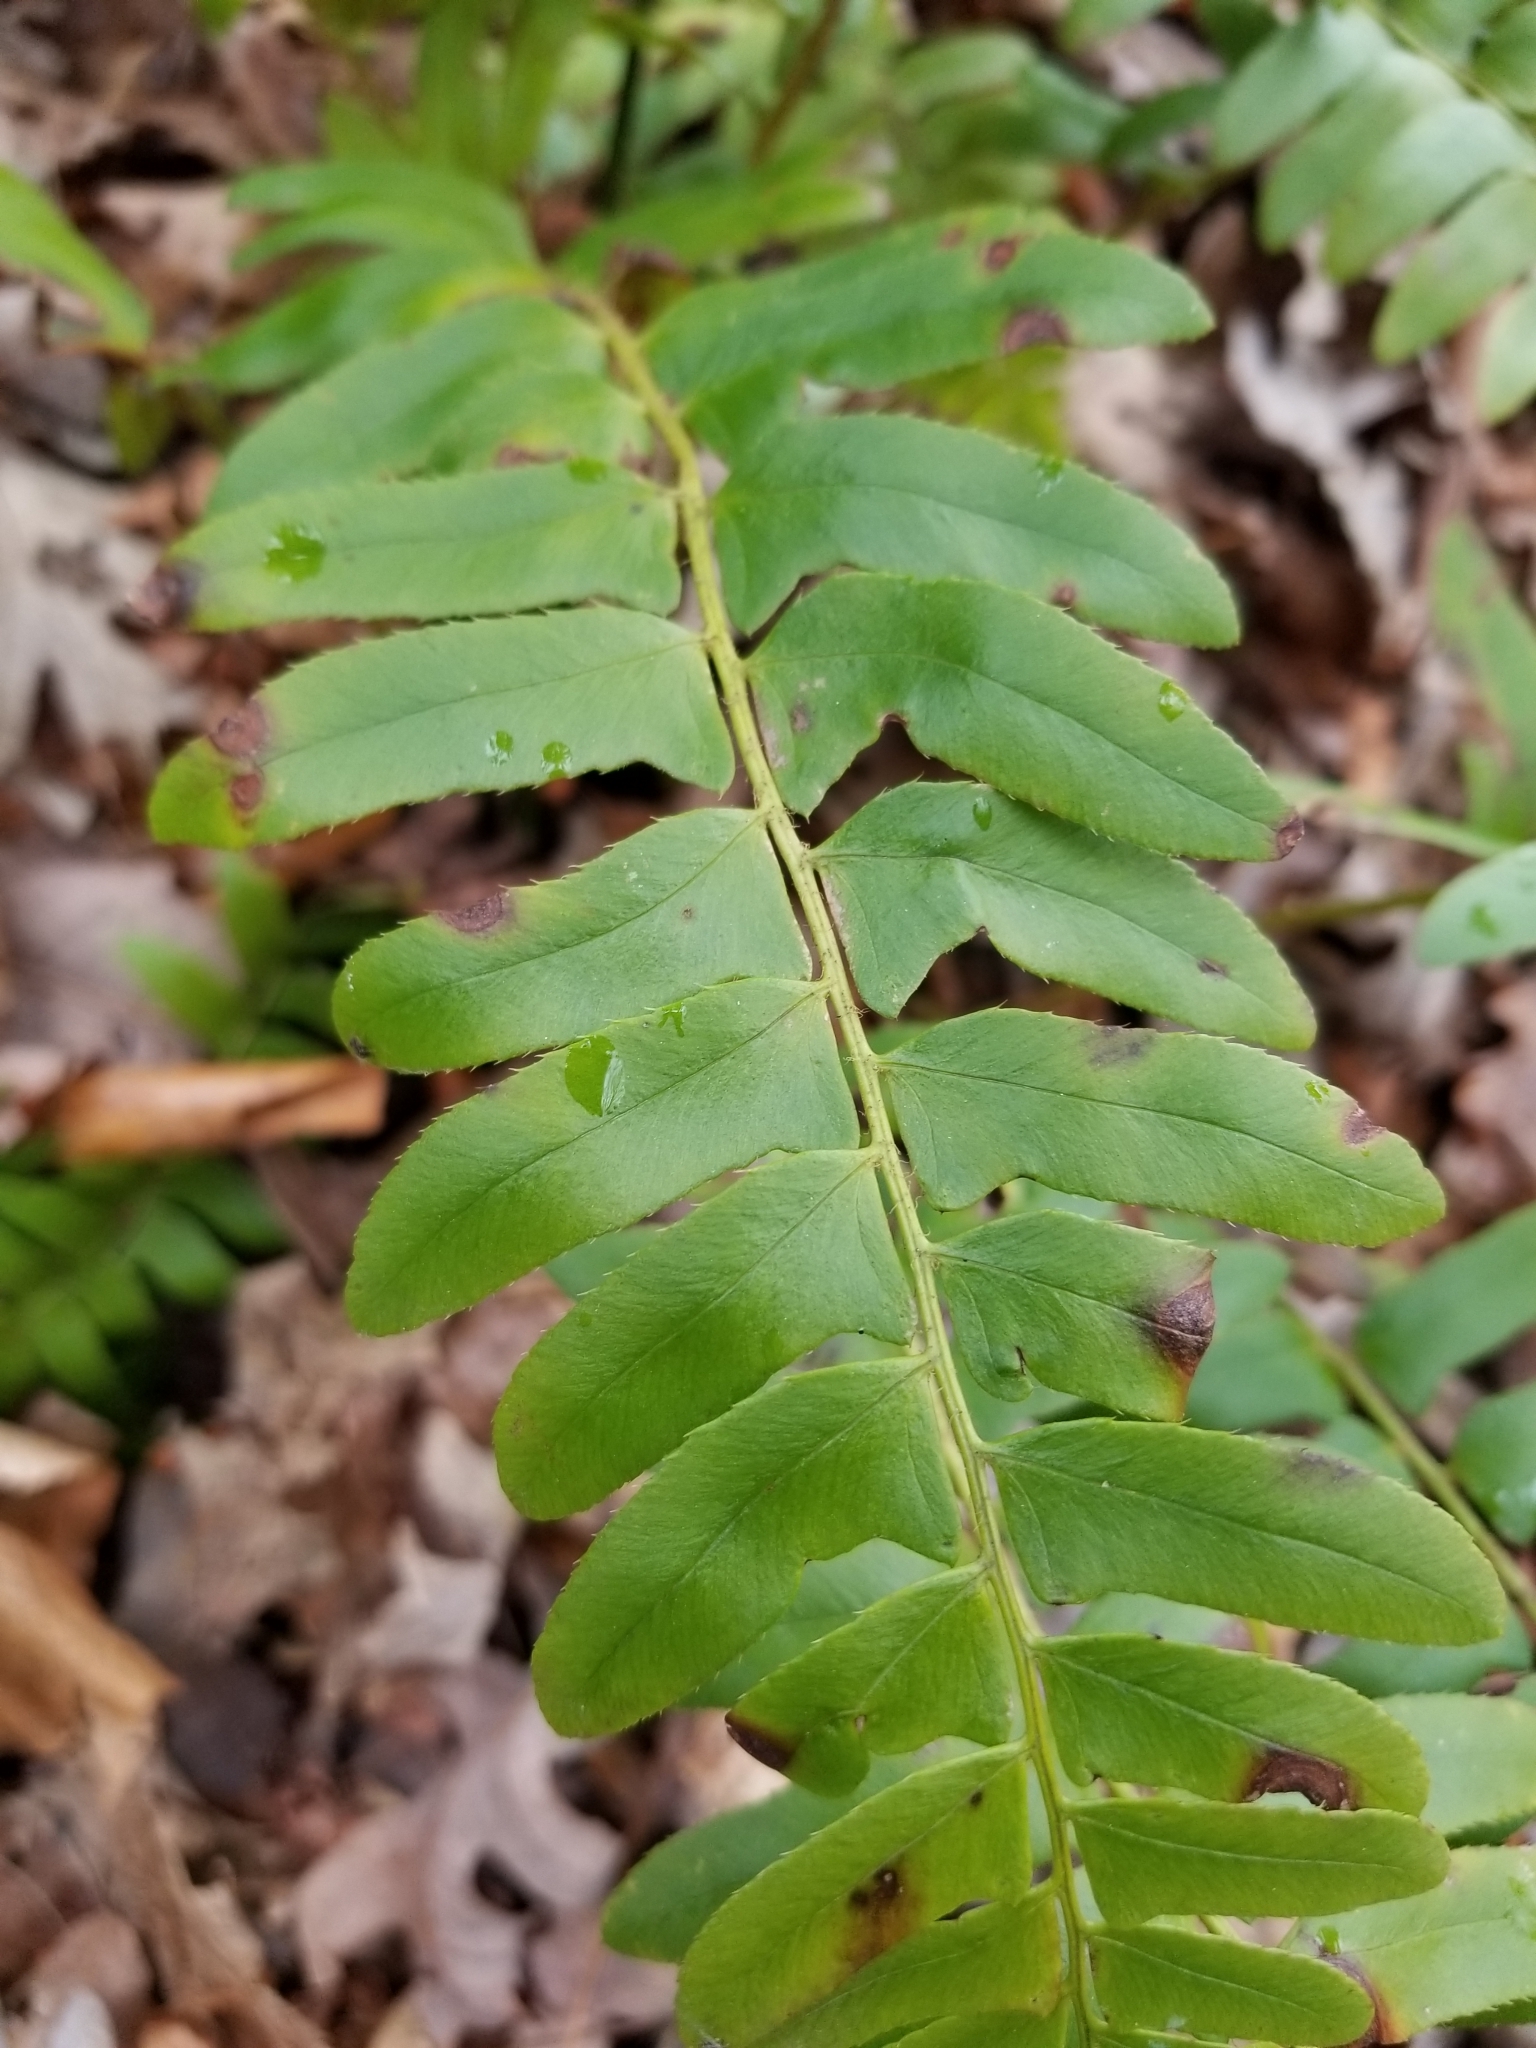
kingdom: Plantae
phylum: Tracheophyta
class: Polypodiopsida
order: Polypodiales
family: Dryopteridaceae
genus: Polystichum
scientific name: Polystichum acrostichoides
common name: Christmas fern
